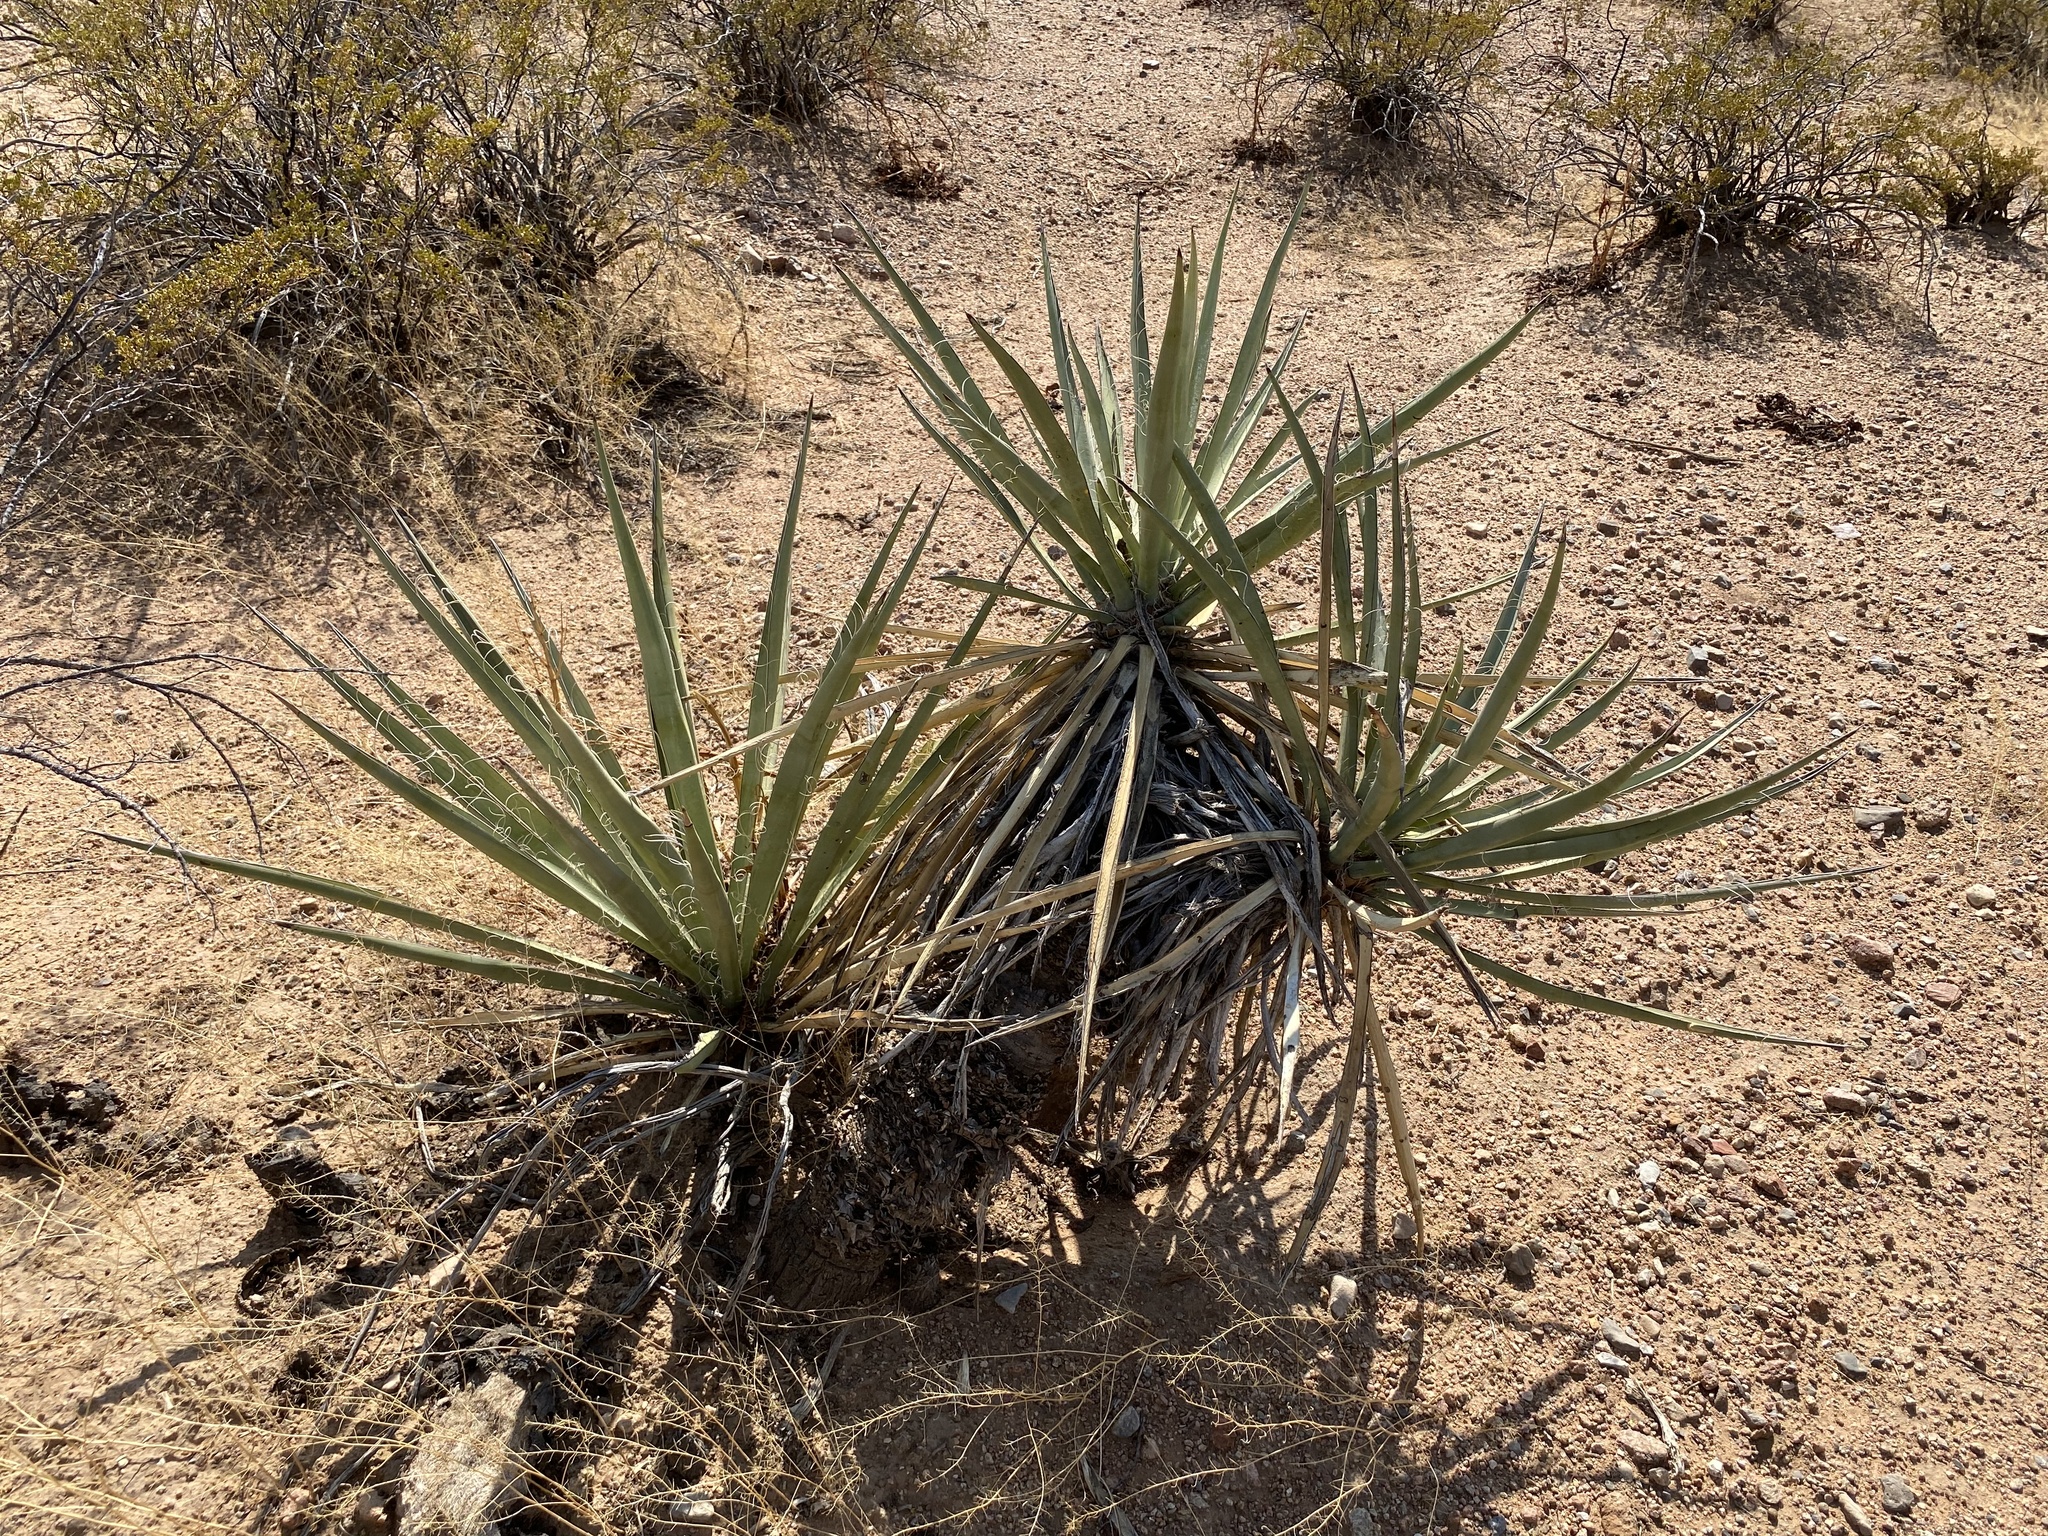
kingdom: Plantae
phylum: Tracheophyta
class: Liliopsida
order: Asparagales
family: Asparagaceae
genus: Yucca
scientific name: Yucca baccata
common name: Banana yucca
